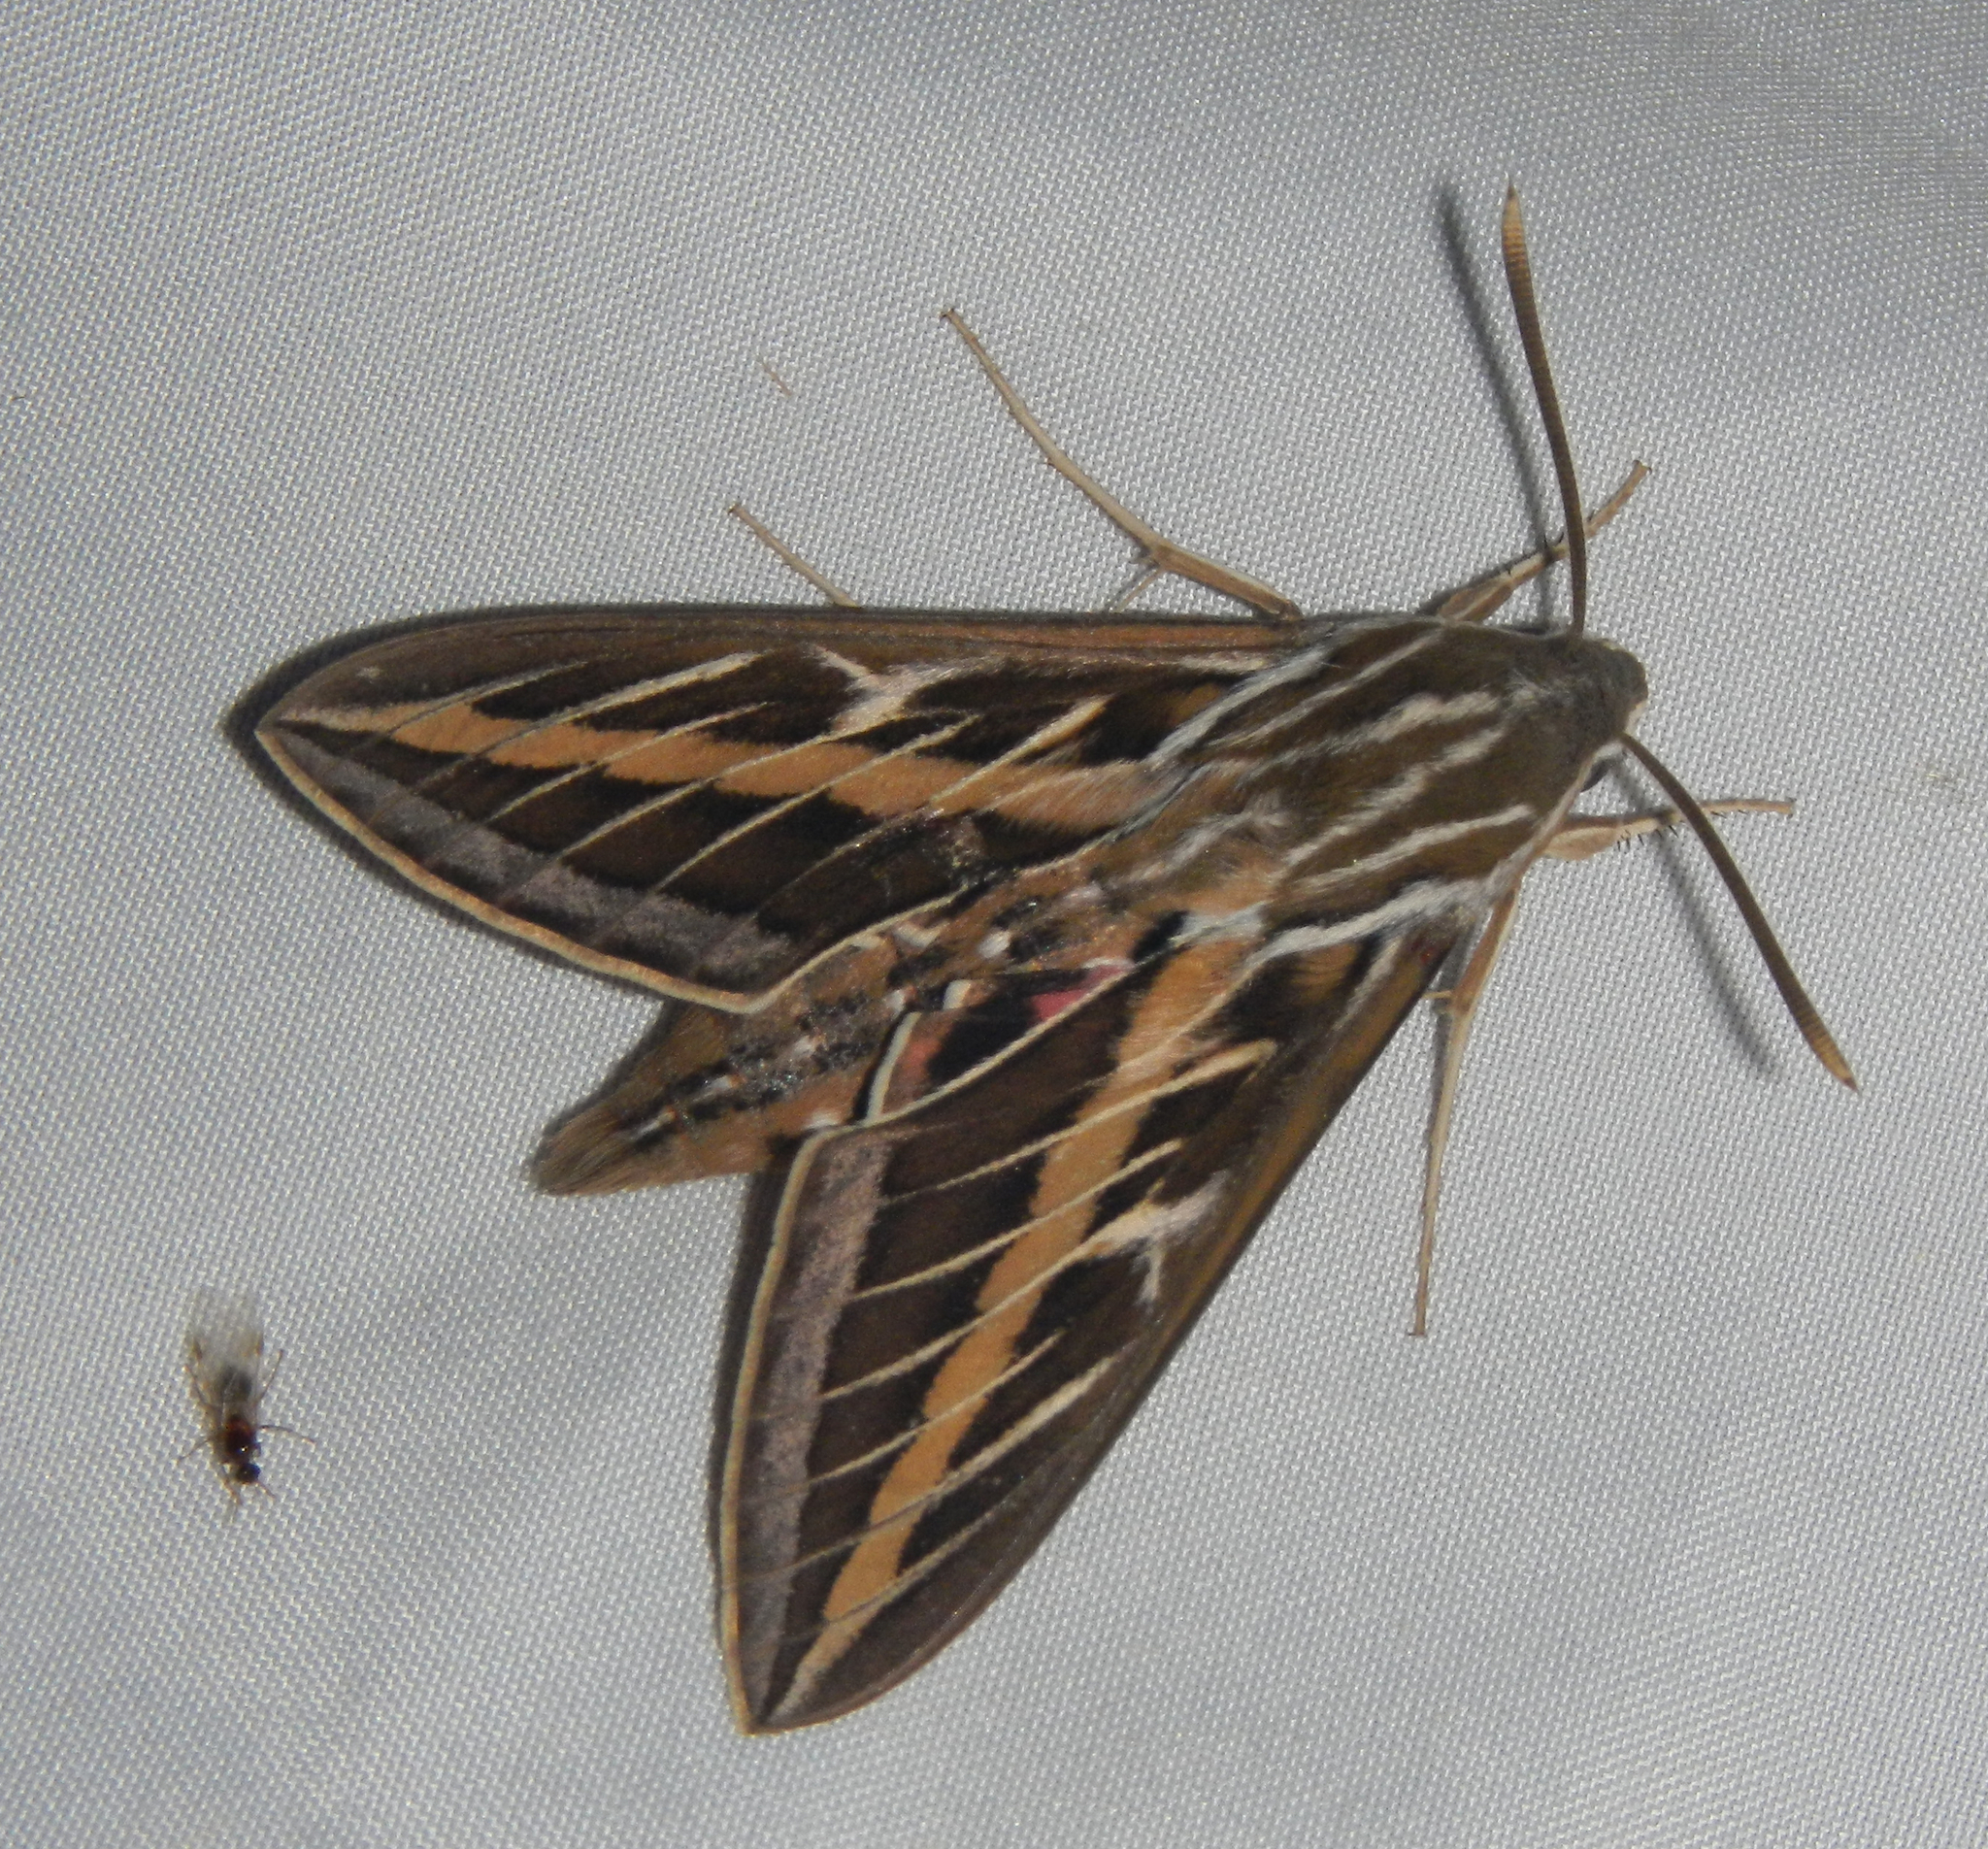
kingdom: Animalia
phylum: Arthropoda
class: Insecta
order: Lepidoptera
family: Sphingidae
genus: Hyles
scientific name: Hyles lineata
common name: White-lined sphinx
